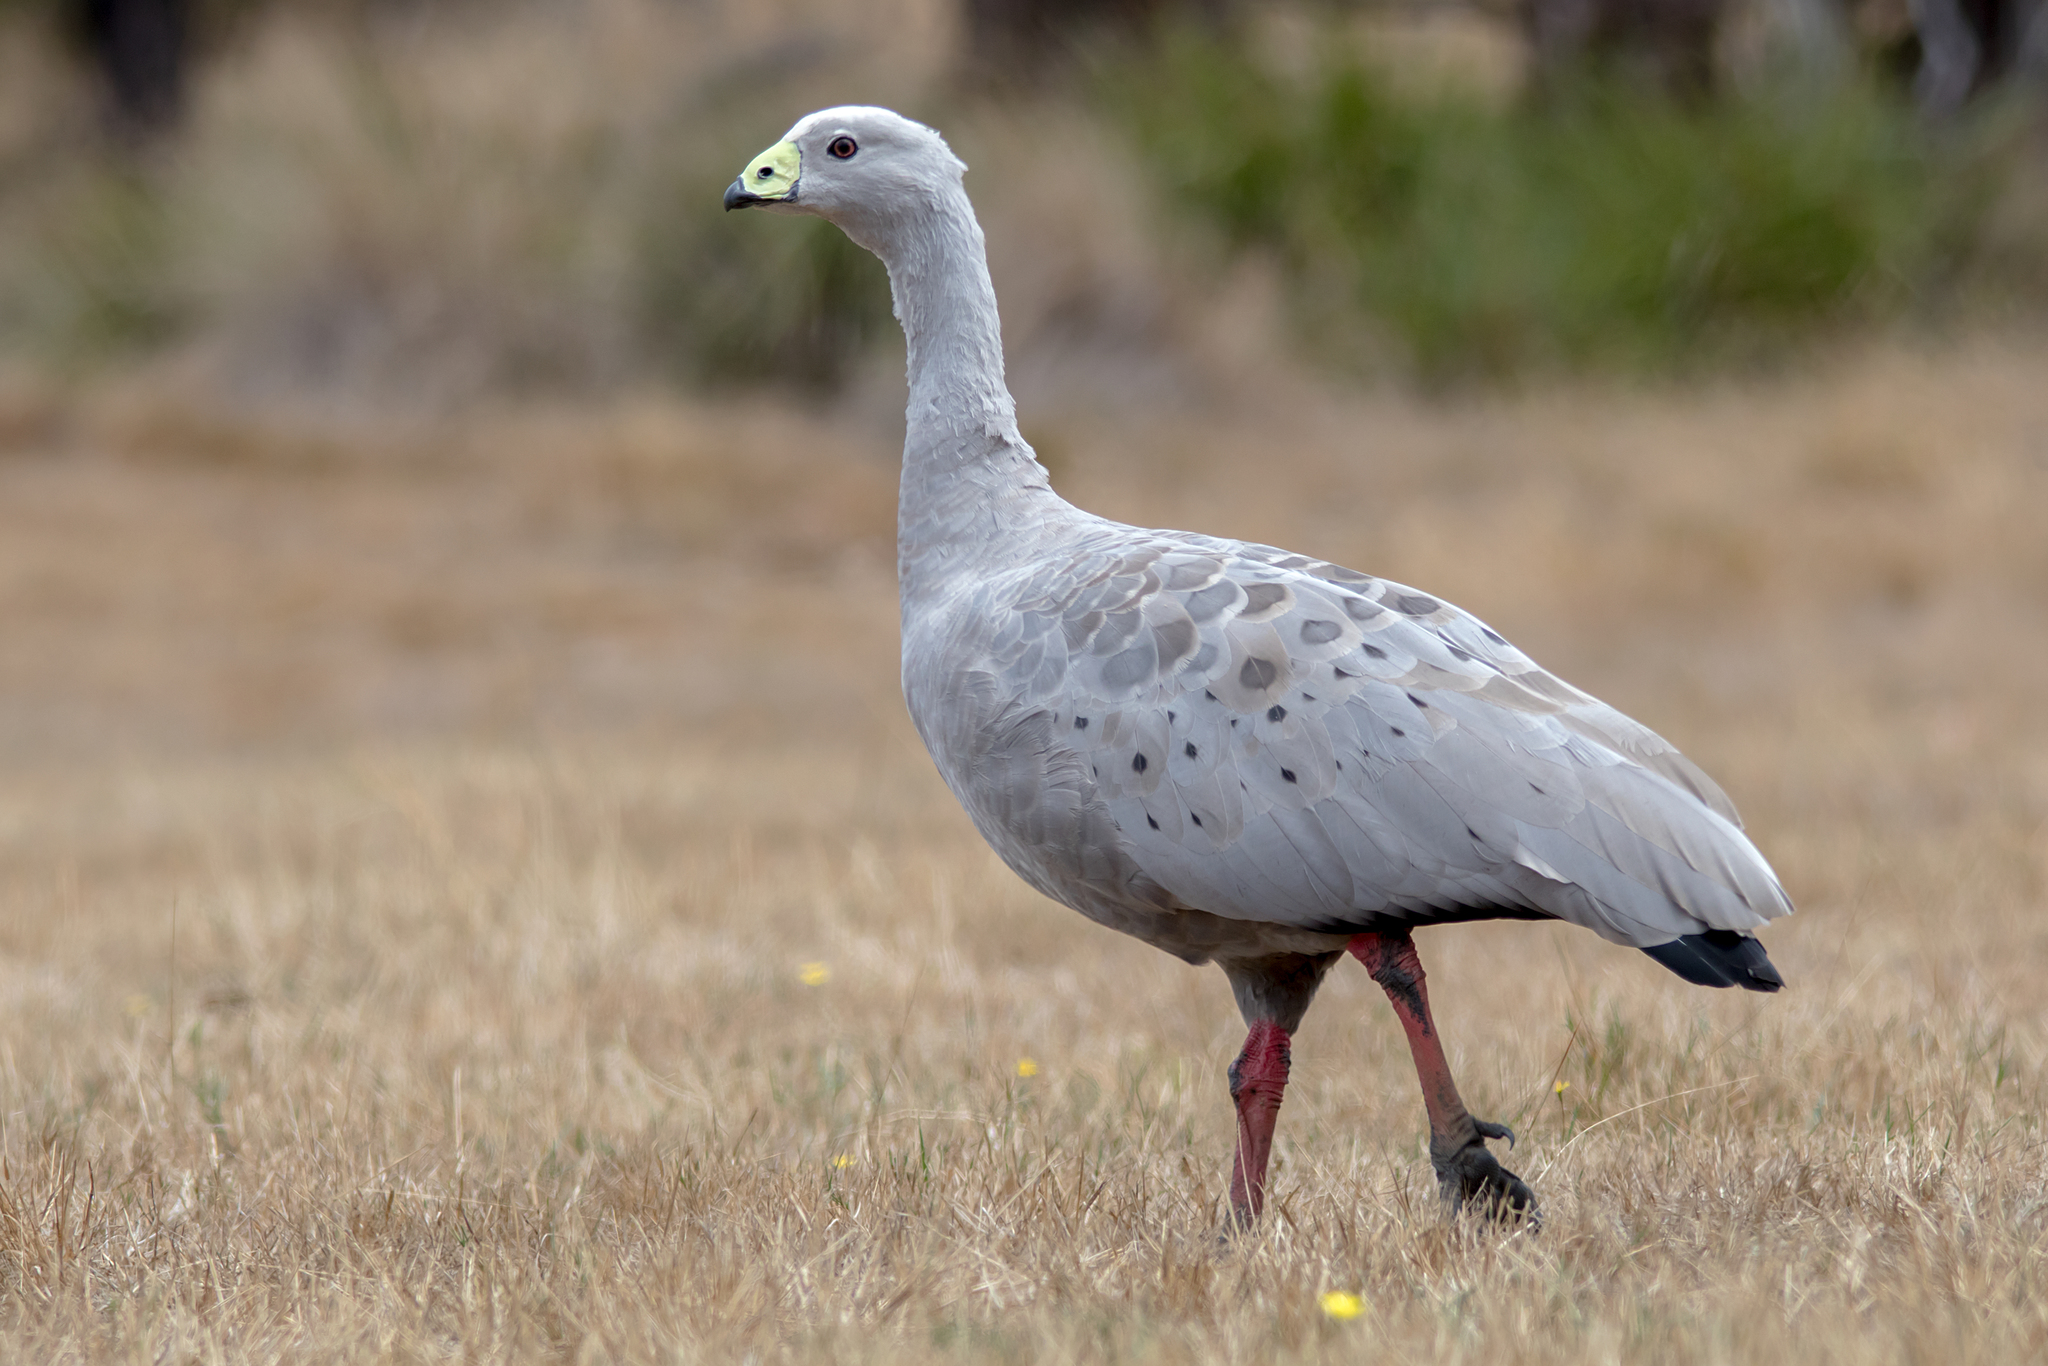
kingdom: Animalia
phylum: Chordata
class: Aves
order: Anseriformes
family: Anatidae
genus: Cereopsis
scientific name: Cereopsis novaehollandiae
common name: Cape barren goose
